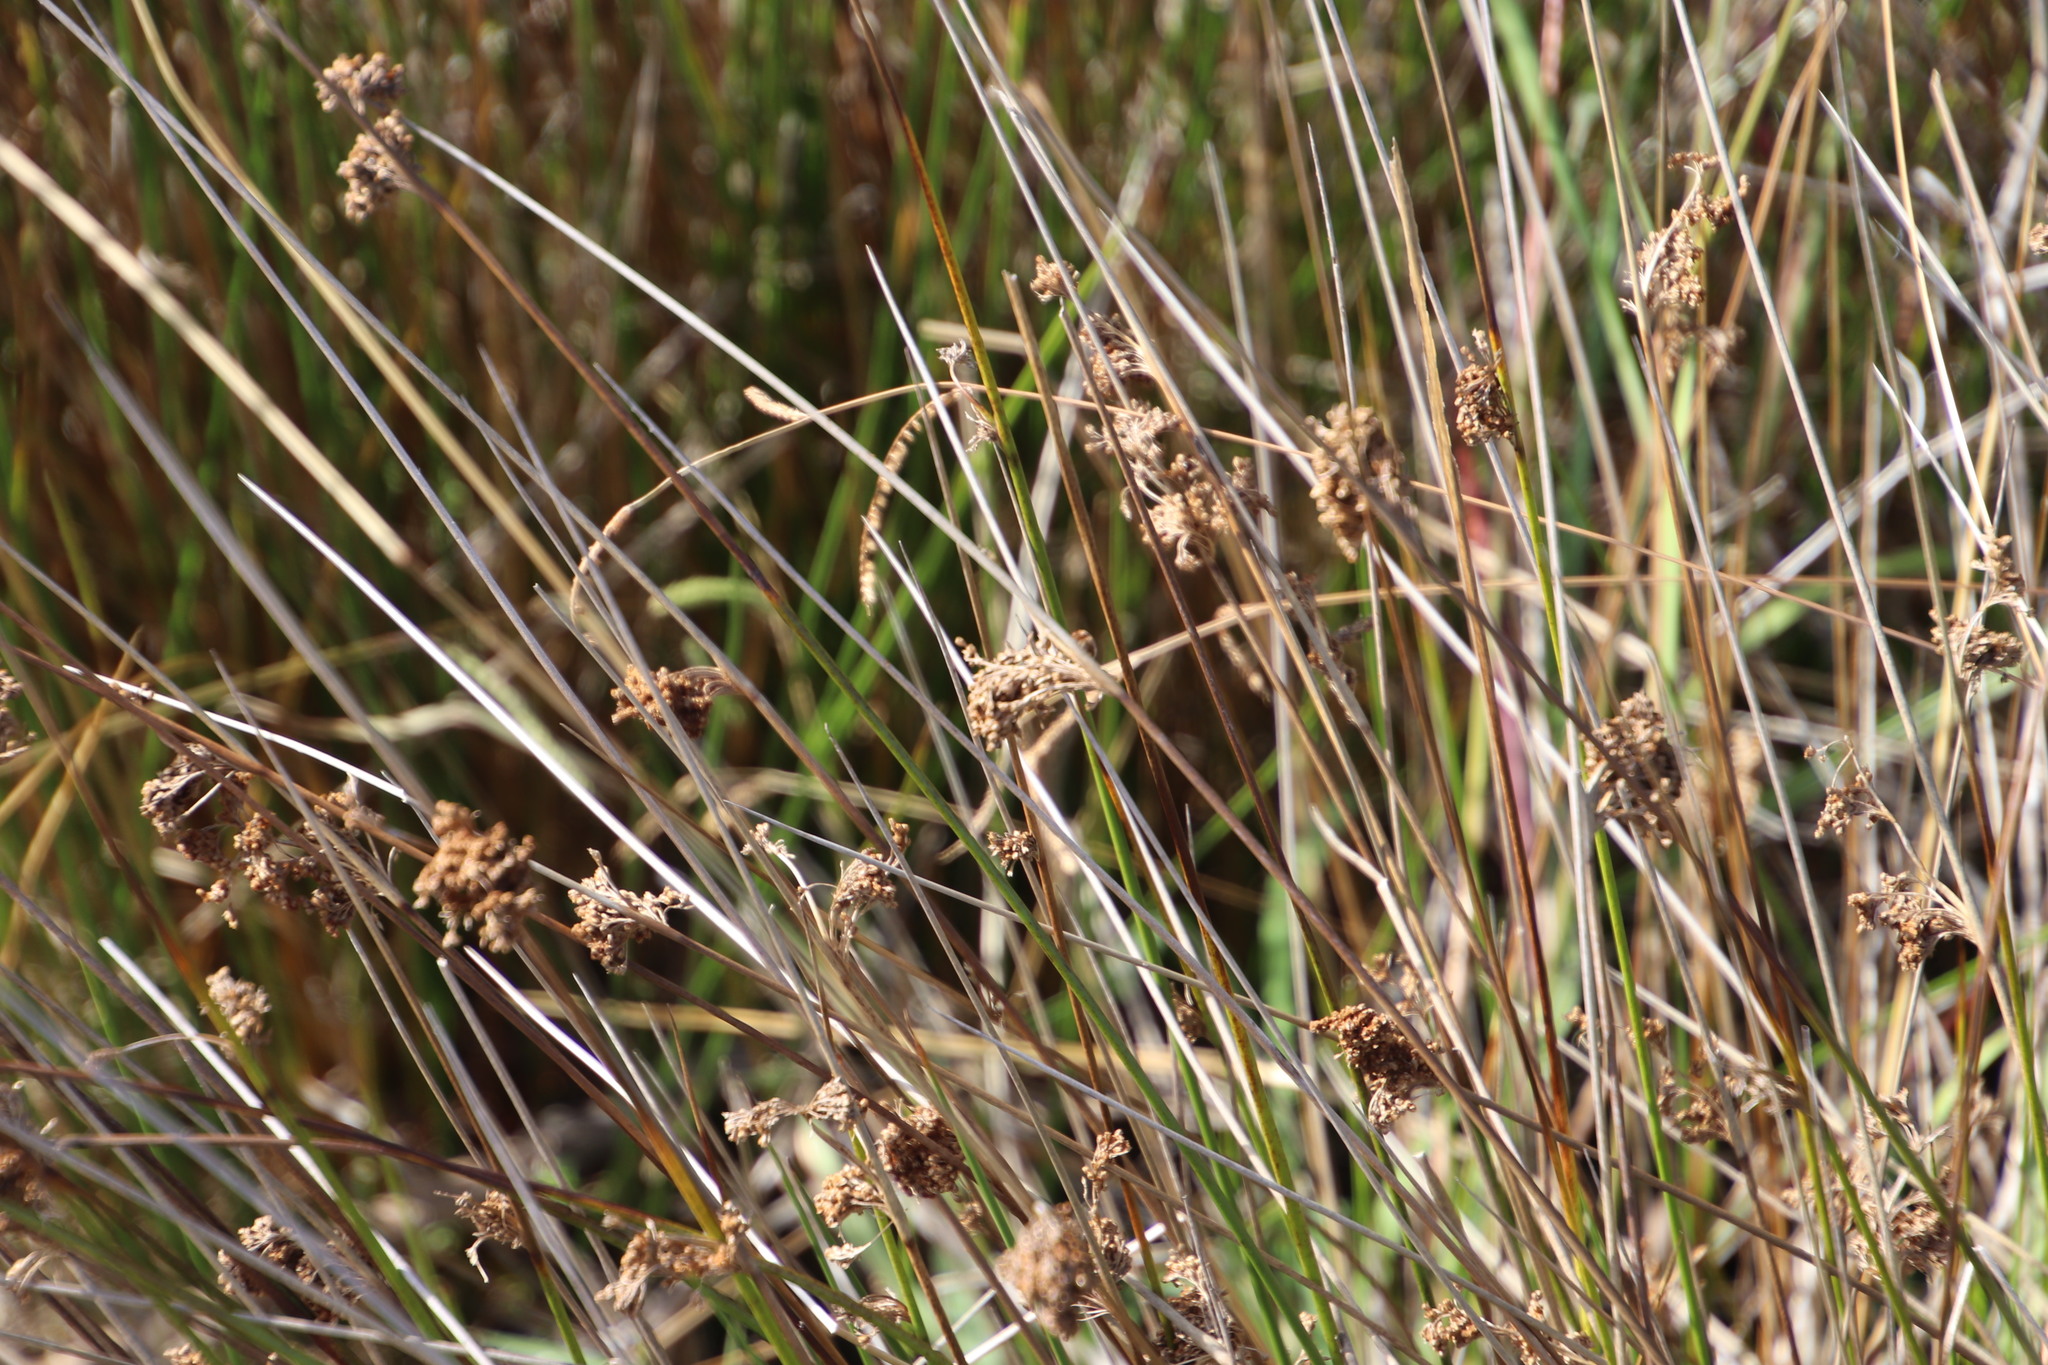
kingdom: Plantae
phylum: Tracheophyta
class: Liliopsida
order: Poales
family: Juncaceae
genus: Juncus
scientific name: Juncus kraussii
